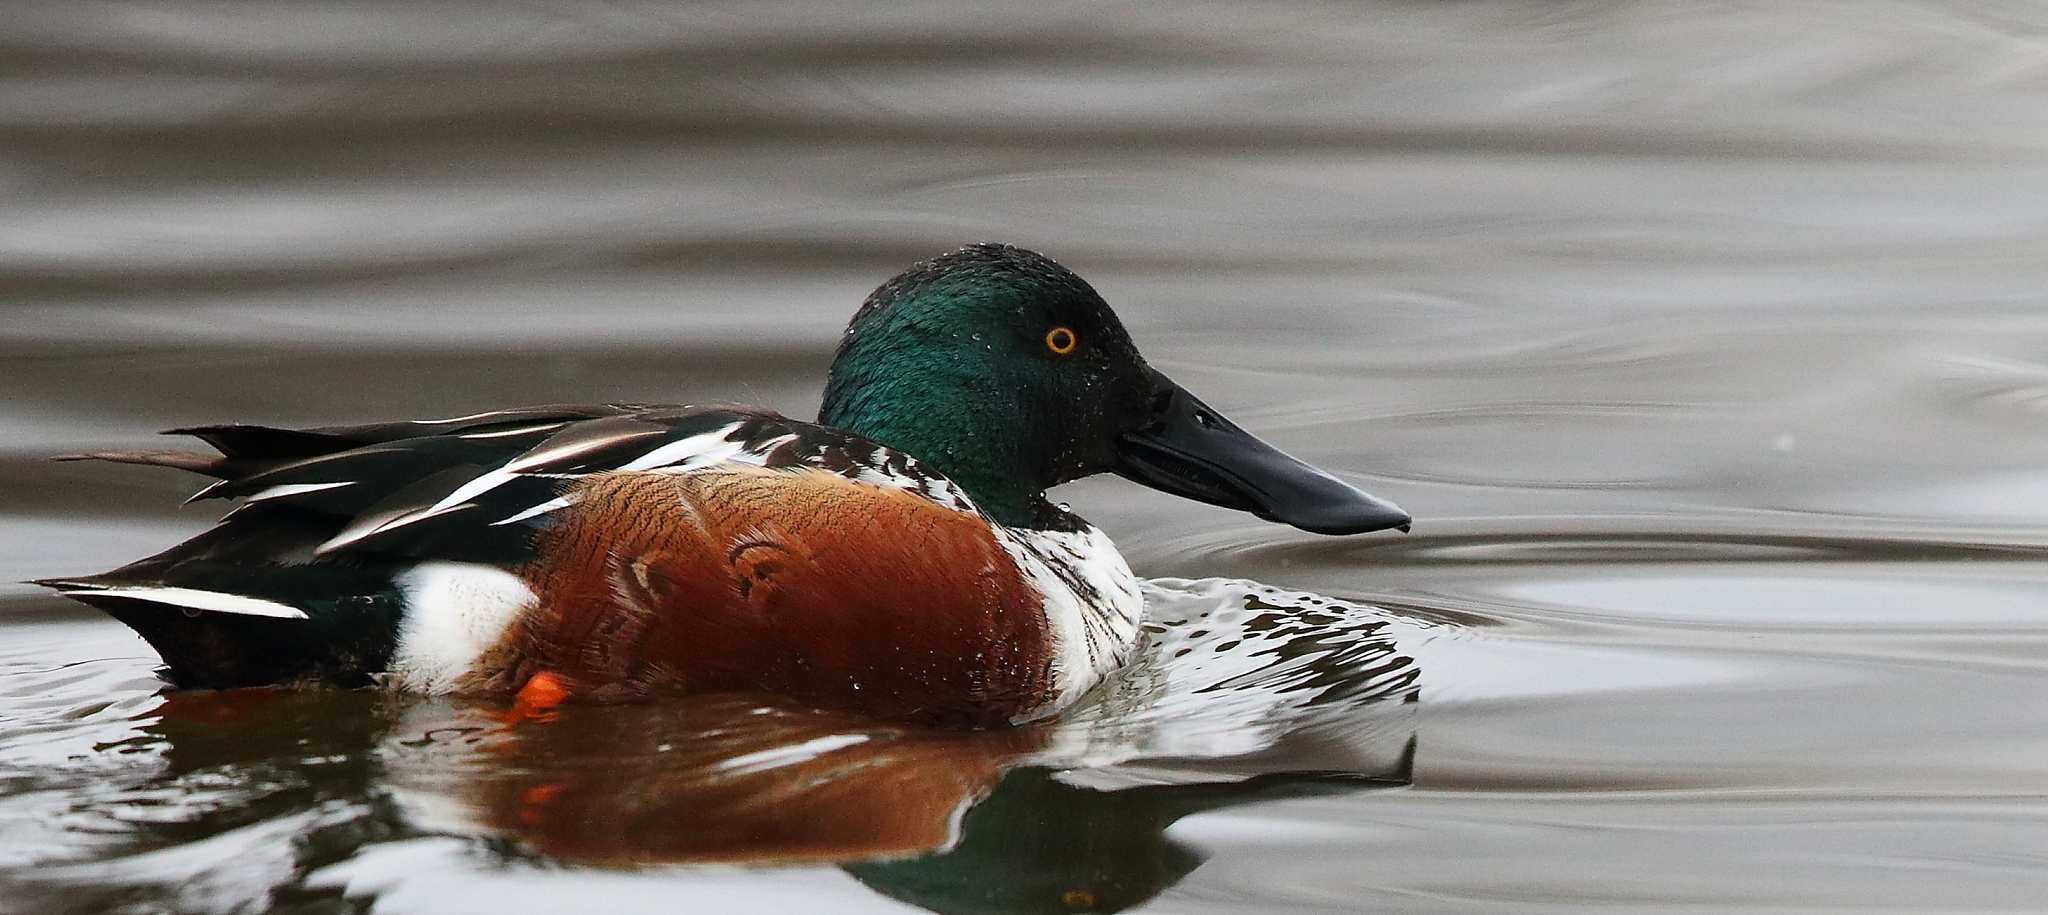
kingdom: Animalia
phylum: Chordata
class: Aves
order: Anseriformes
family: Anatidae
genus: Spatula
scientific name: Spatula clypeata
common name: Northern shoveler
